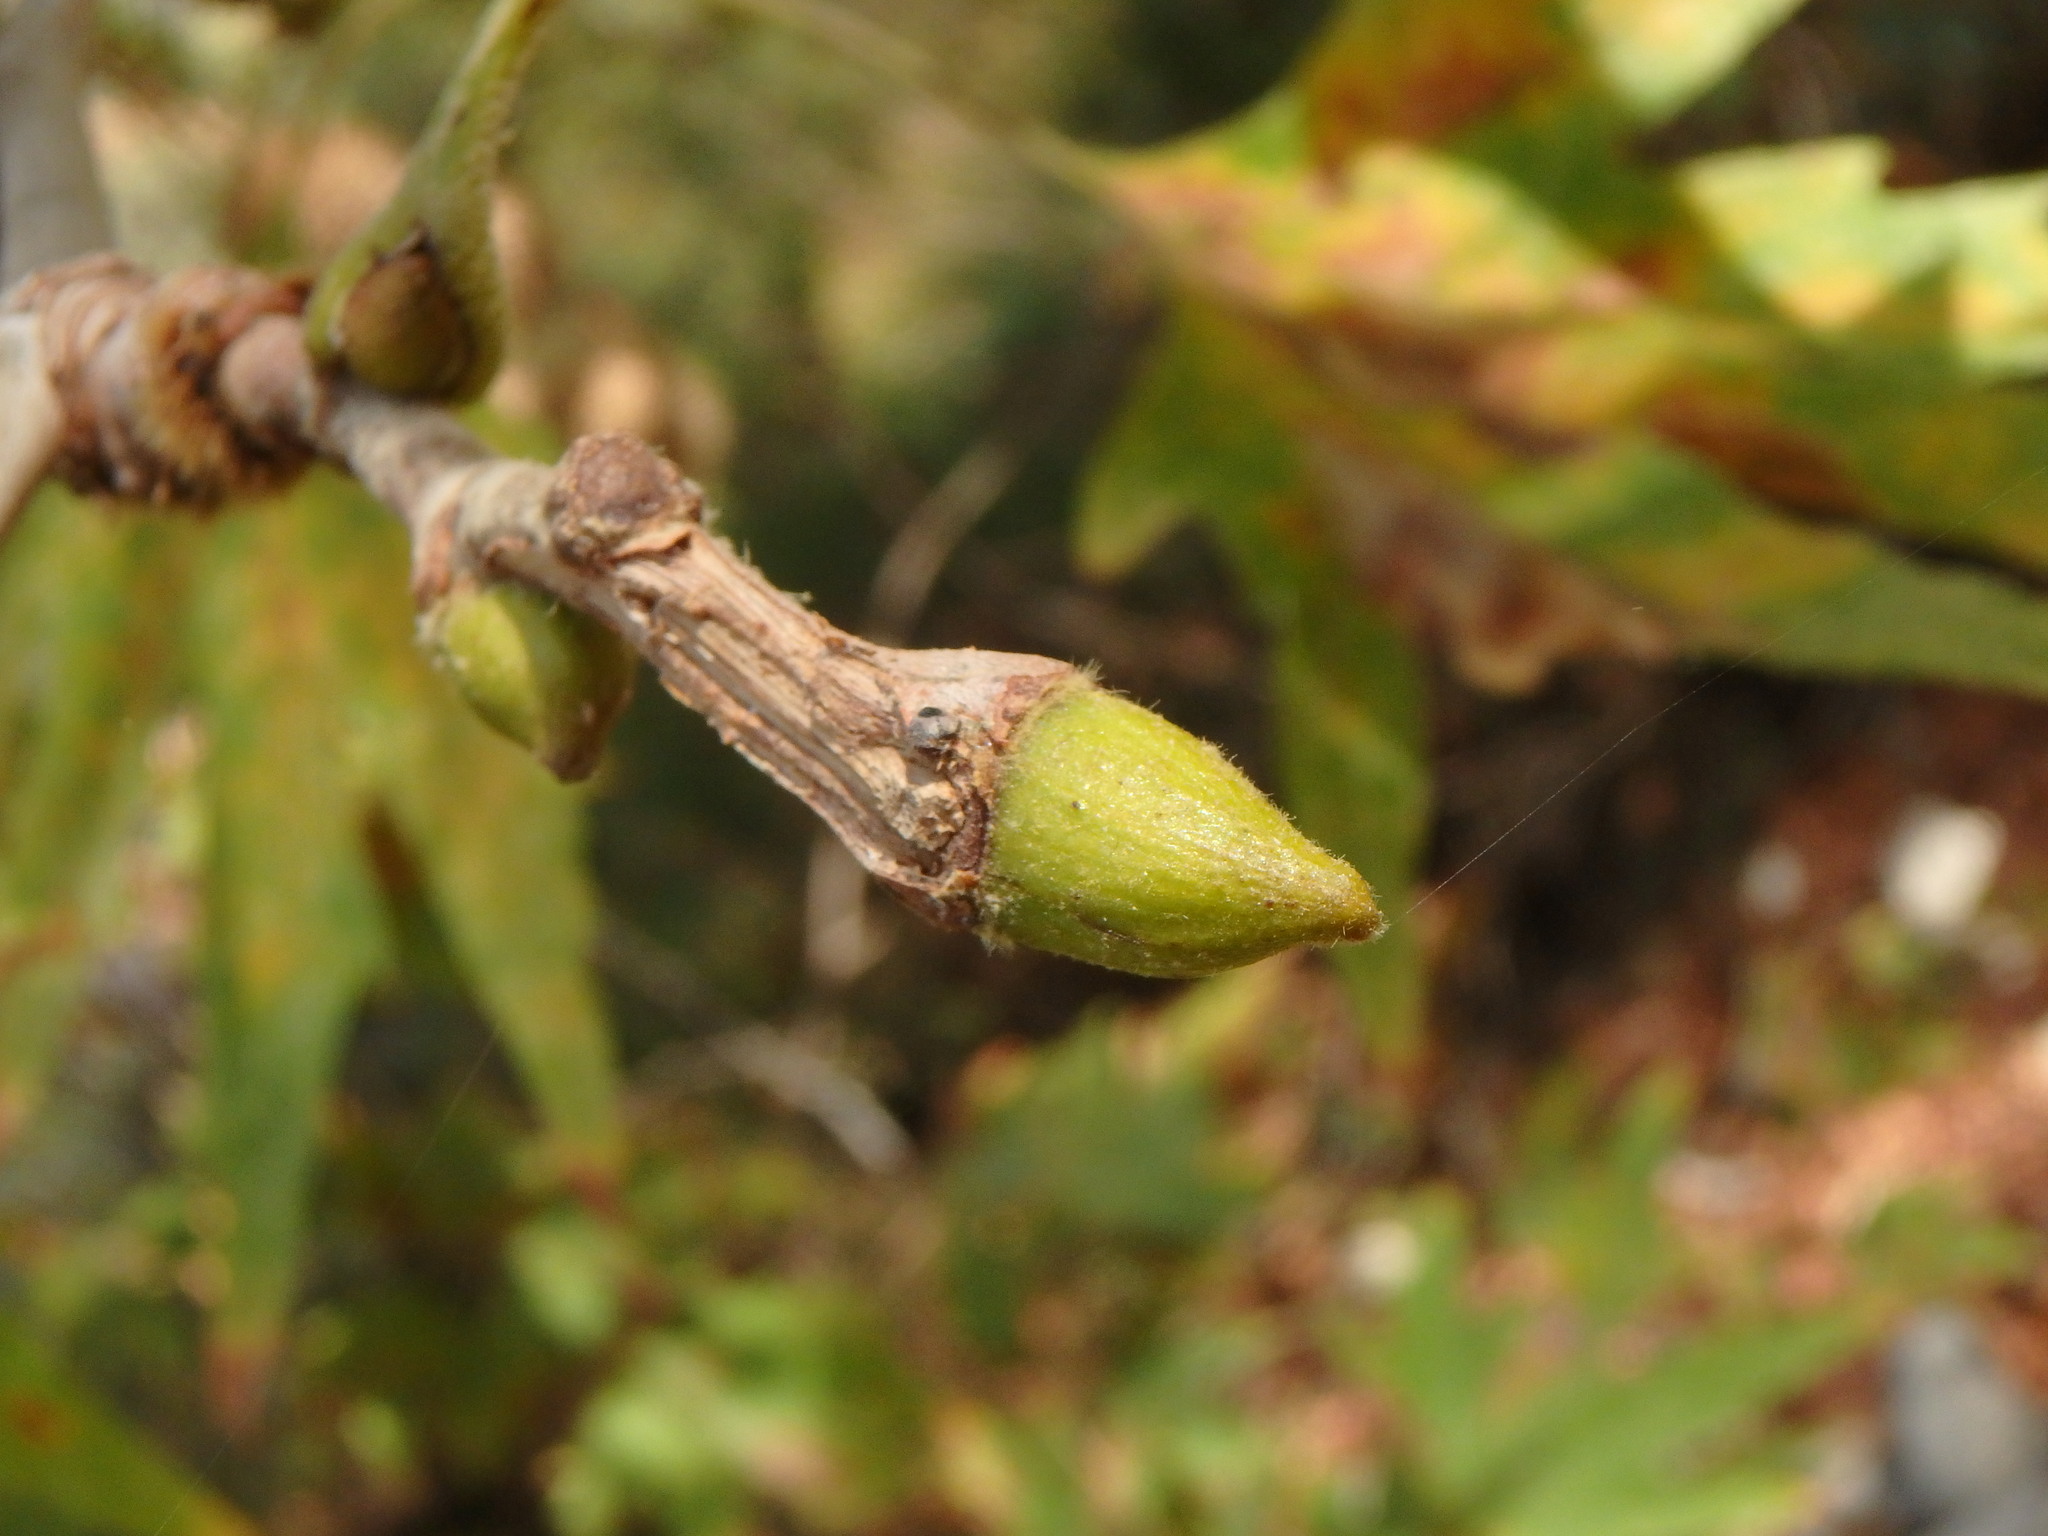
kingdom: Plantae
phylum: Tracheophyta
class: Magnoliopsida
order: Proteales
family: Platanaceae
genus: Platanus
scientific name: Platanus orientalis
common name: Oriental plane
